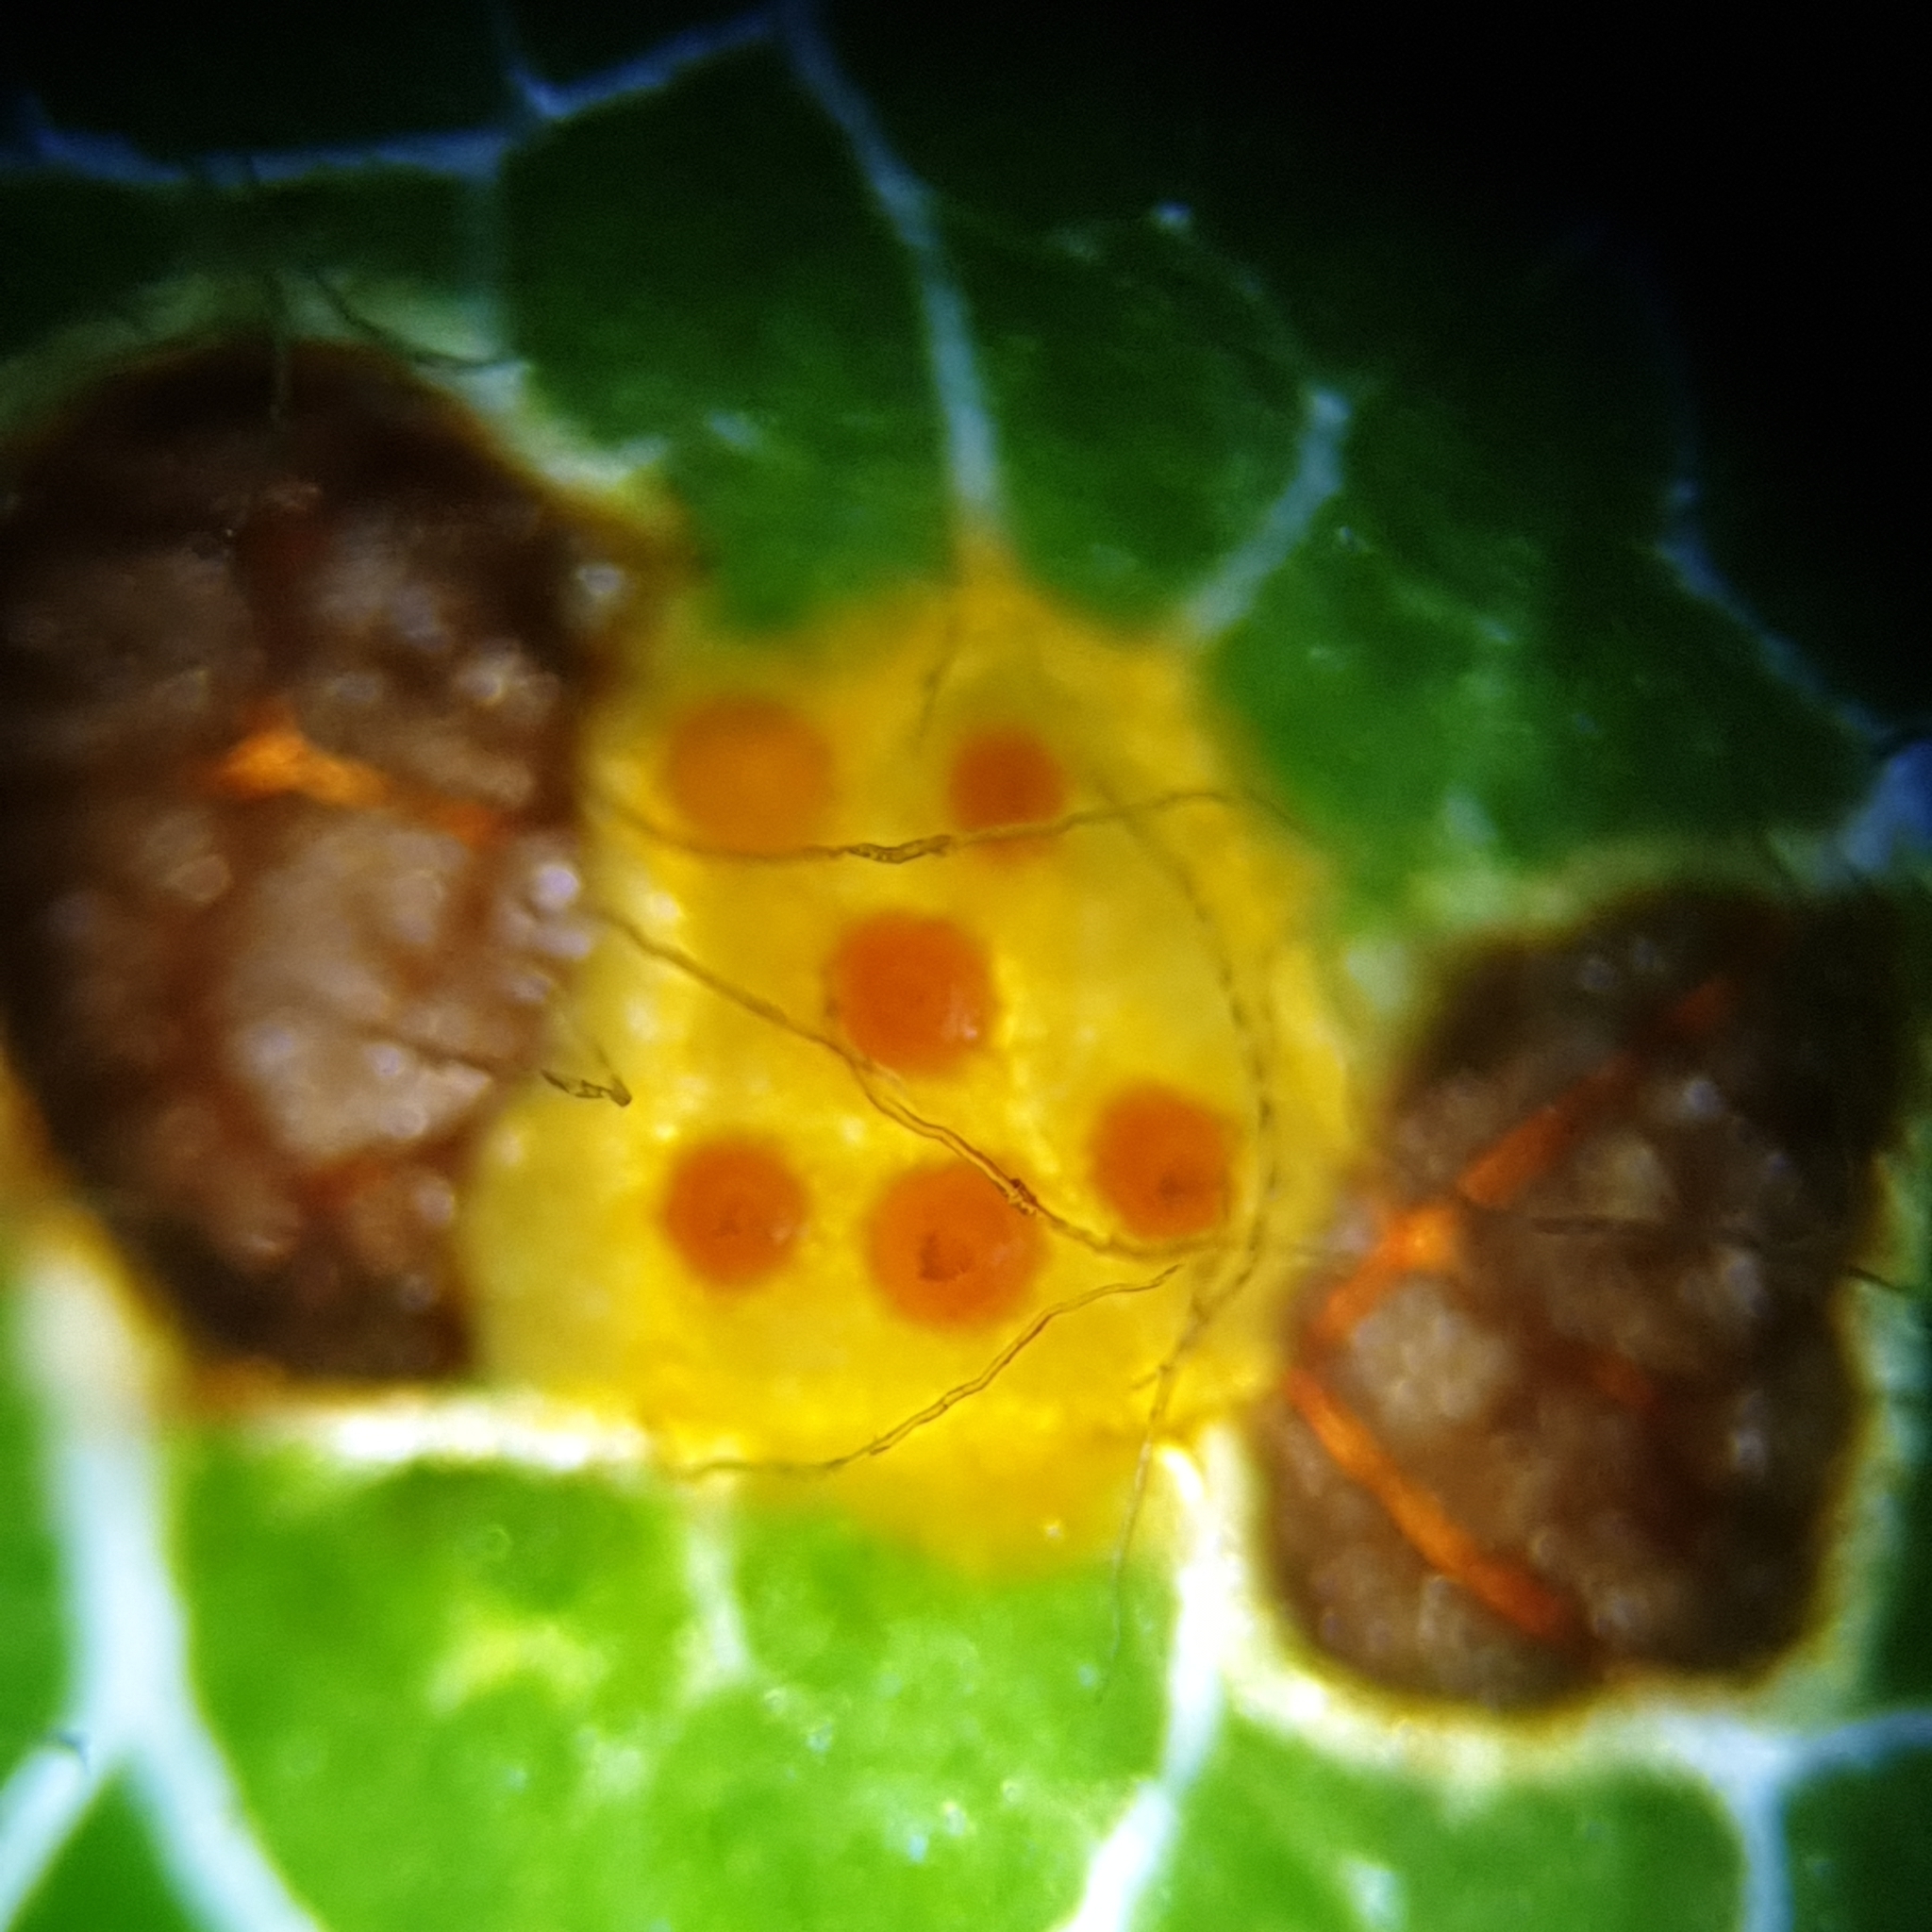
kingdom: Fungi
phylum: Basidiomycota
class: Pucciniomycetes
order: Pucciniales
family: Gymnosporangiaceae
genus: Gymnosporangium
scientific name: Gymnosporangium cornutum
